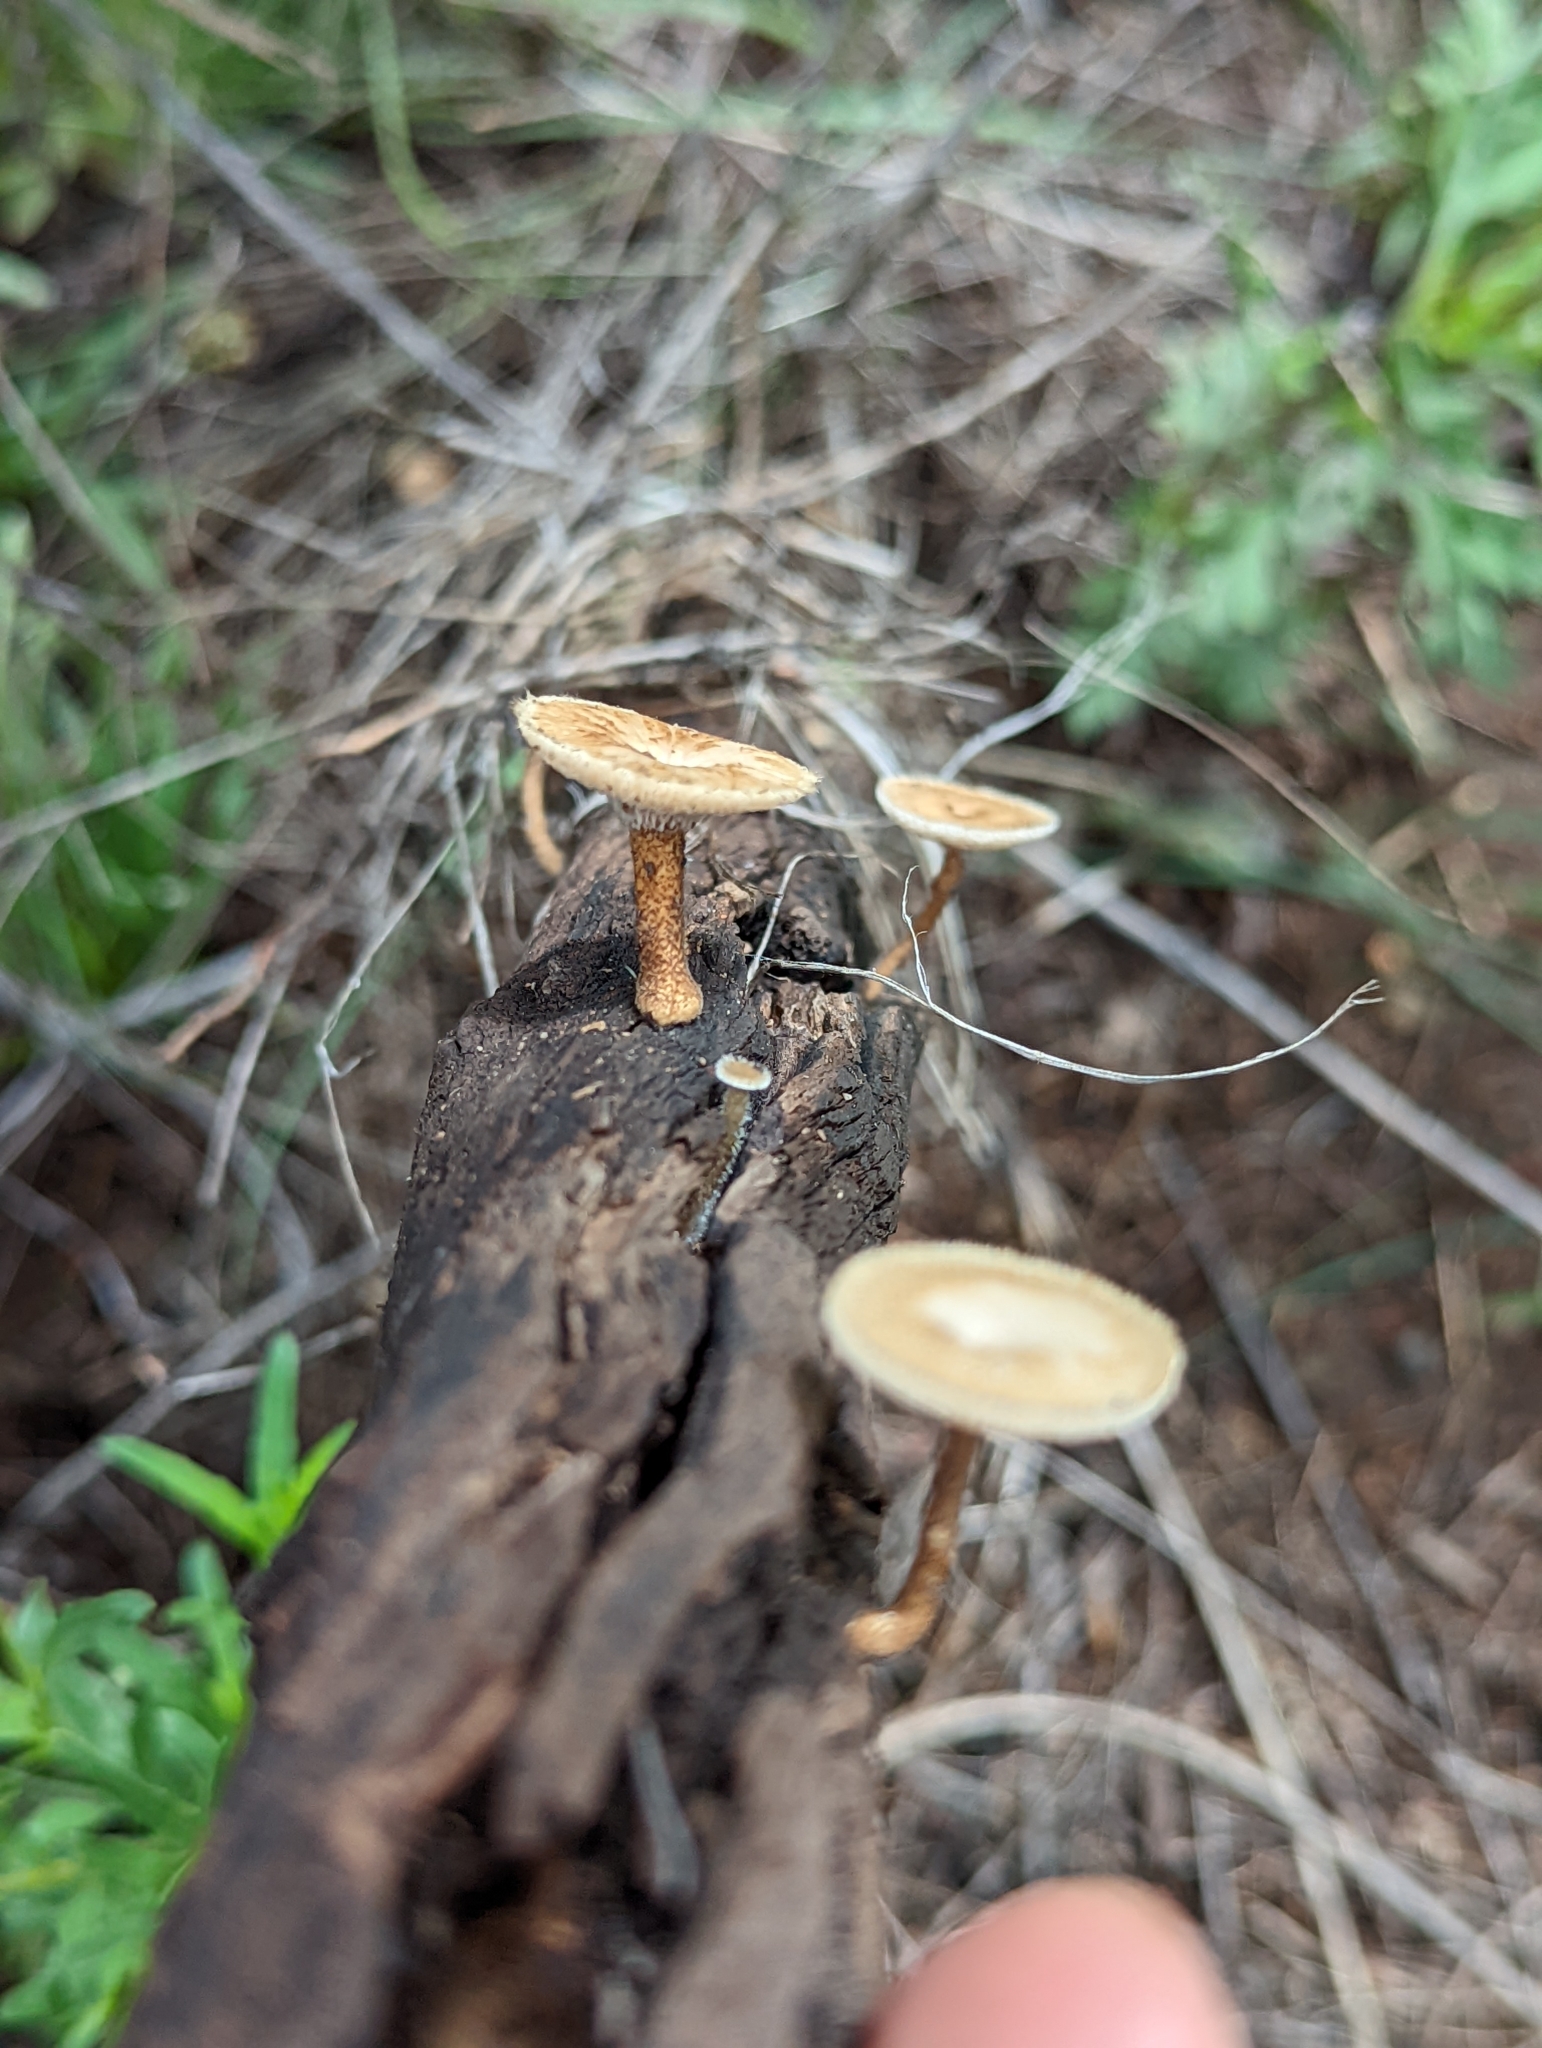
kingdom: Fungi
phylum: Basidiomycota
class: Agaricomycetes
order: Polyporales
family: Polyporaceae
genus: Lentinus
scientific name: Lentinus arcularius
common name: Spring polypore
